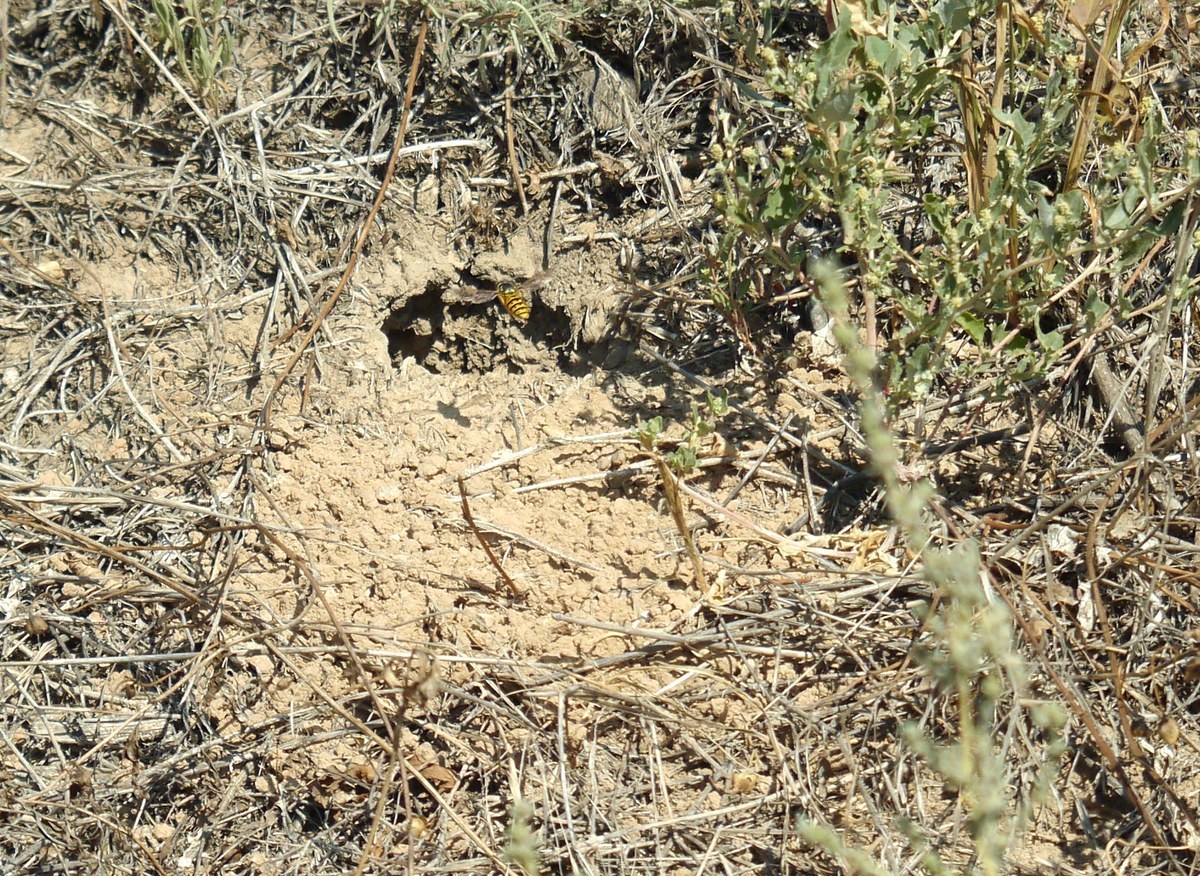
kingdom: Animalia
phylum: Arthropoda
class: Insecta
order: Hymenoptera
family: Vespidae
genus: Vespula
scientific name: Vespula germanica
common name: German wasp
